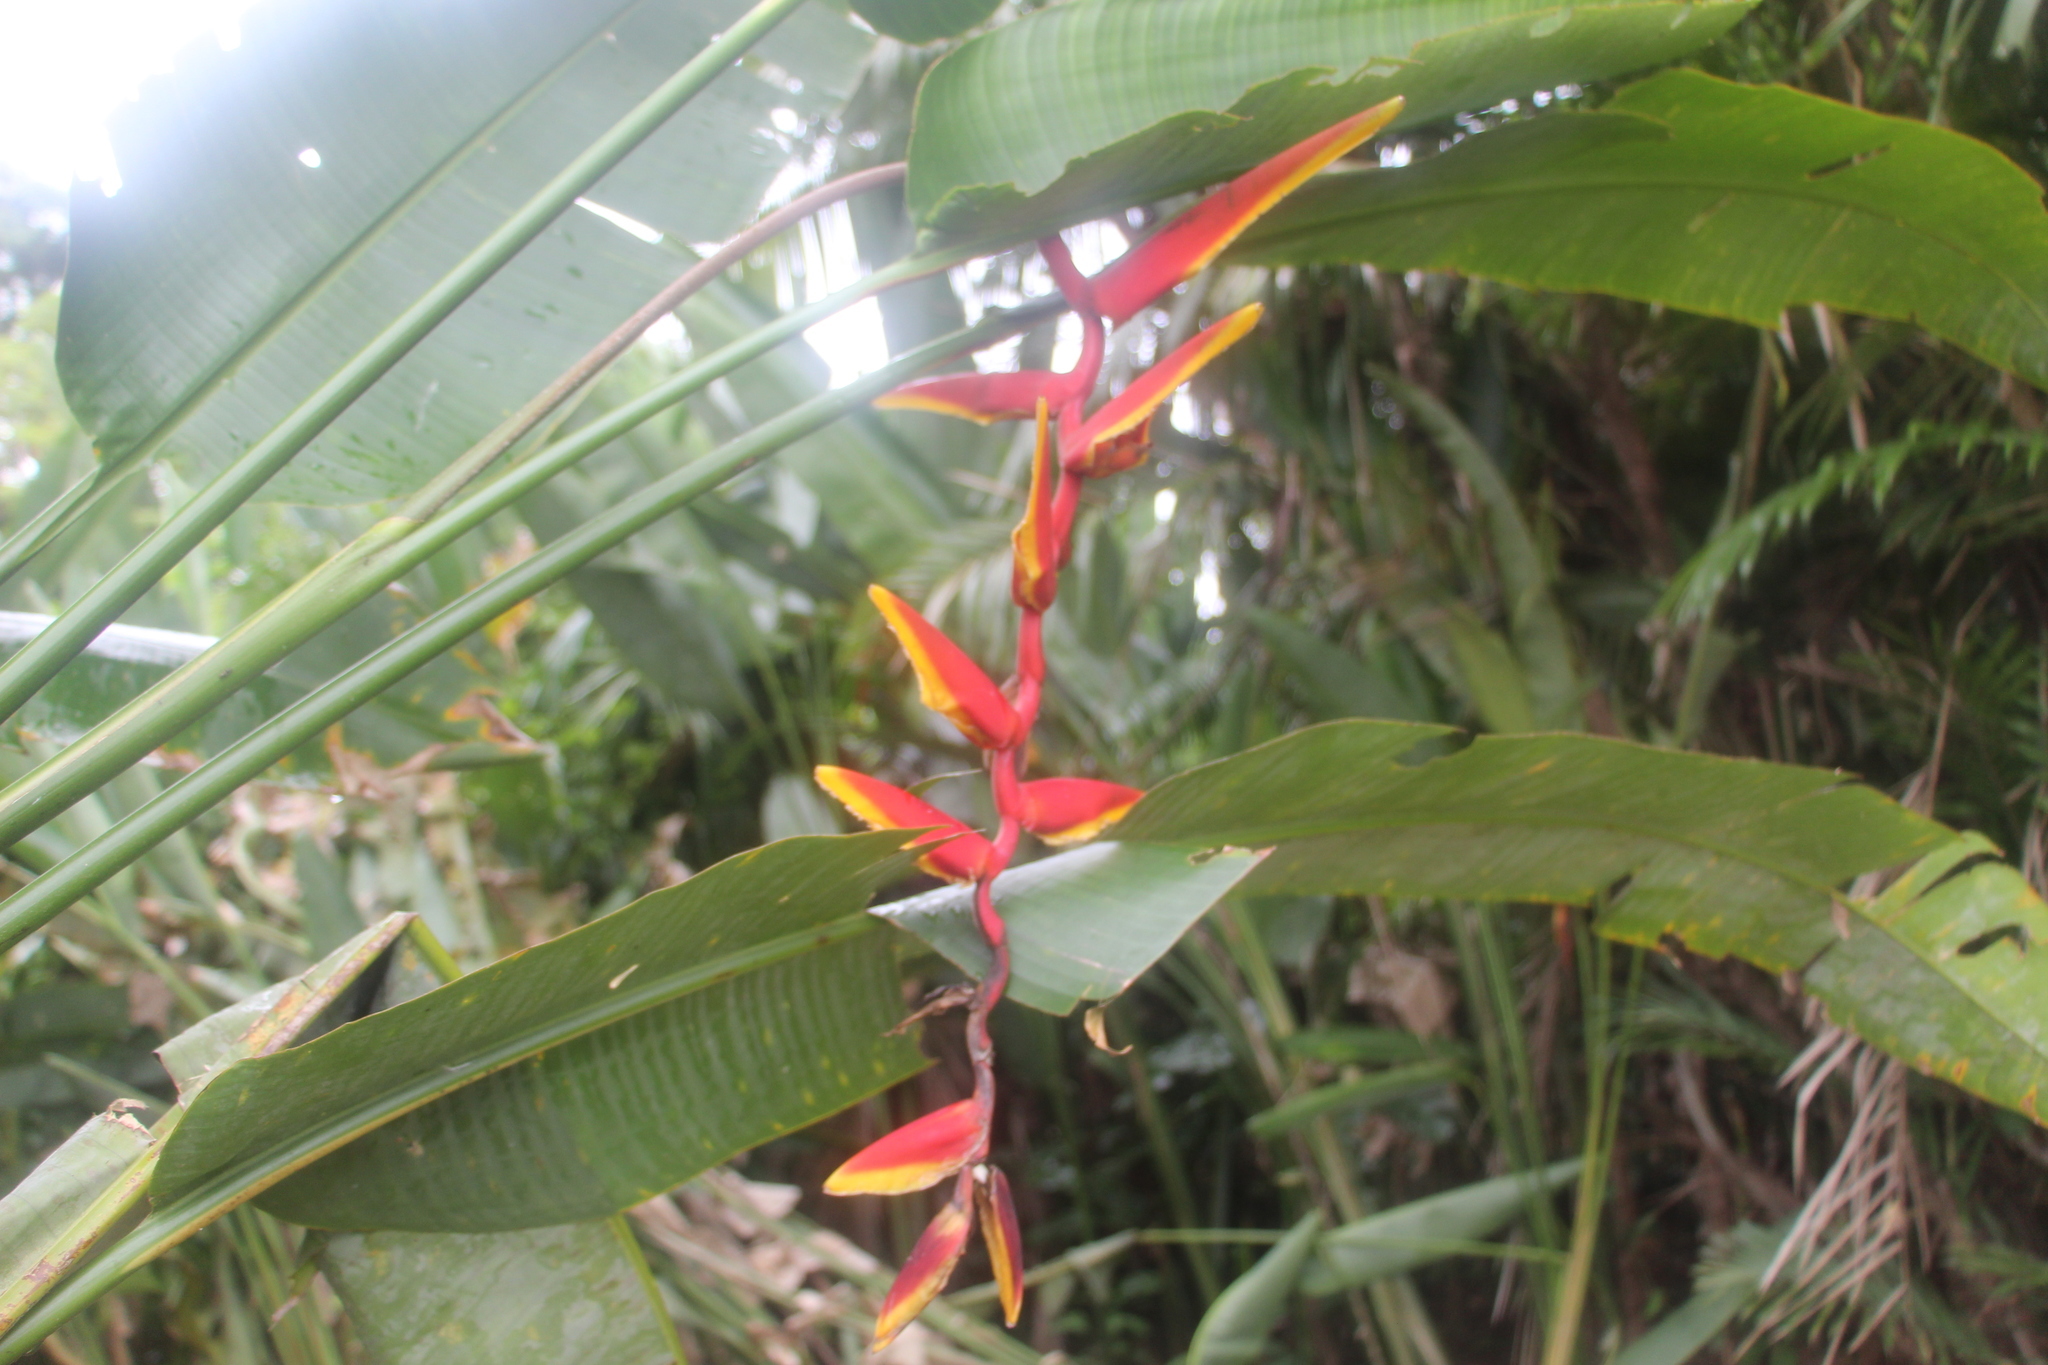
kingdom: Plantae
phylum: Tracheophyta
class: Liliopsida
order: Zingiberales
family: Heliconiaceae
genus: Heliconia
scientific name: Heliconia marginata
